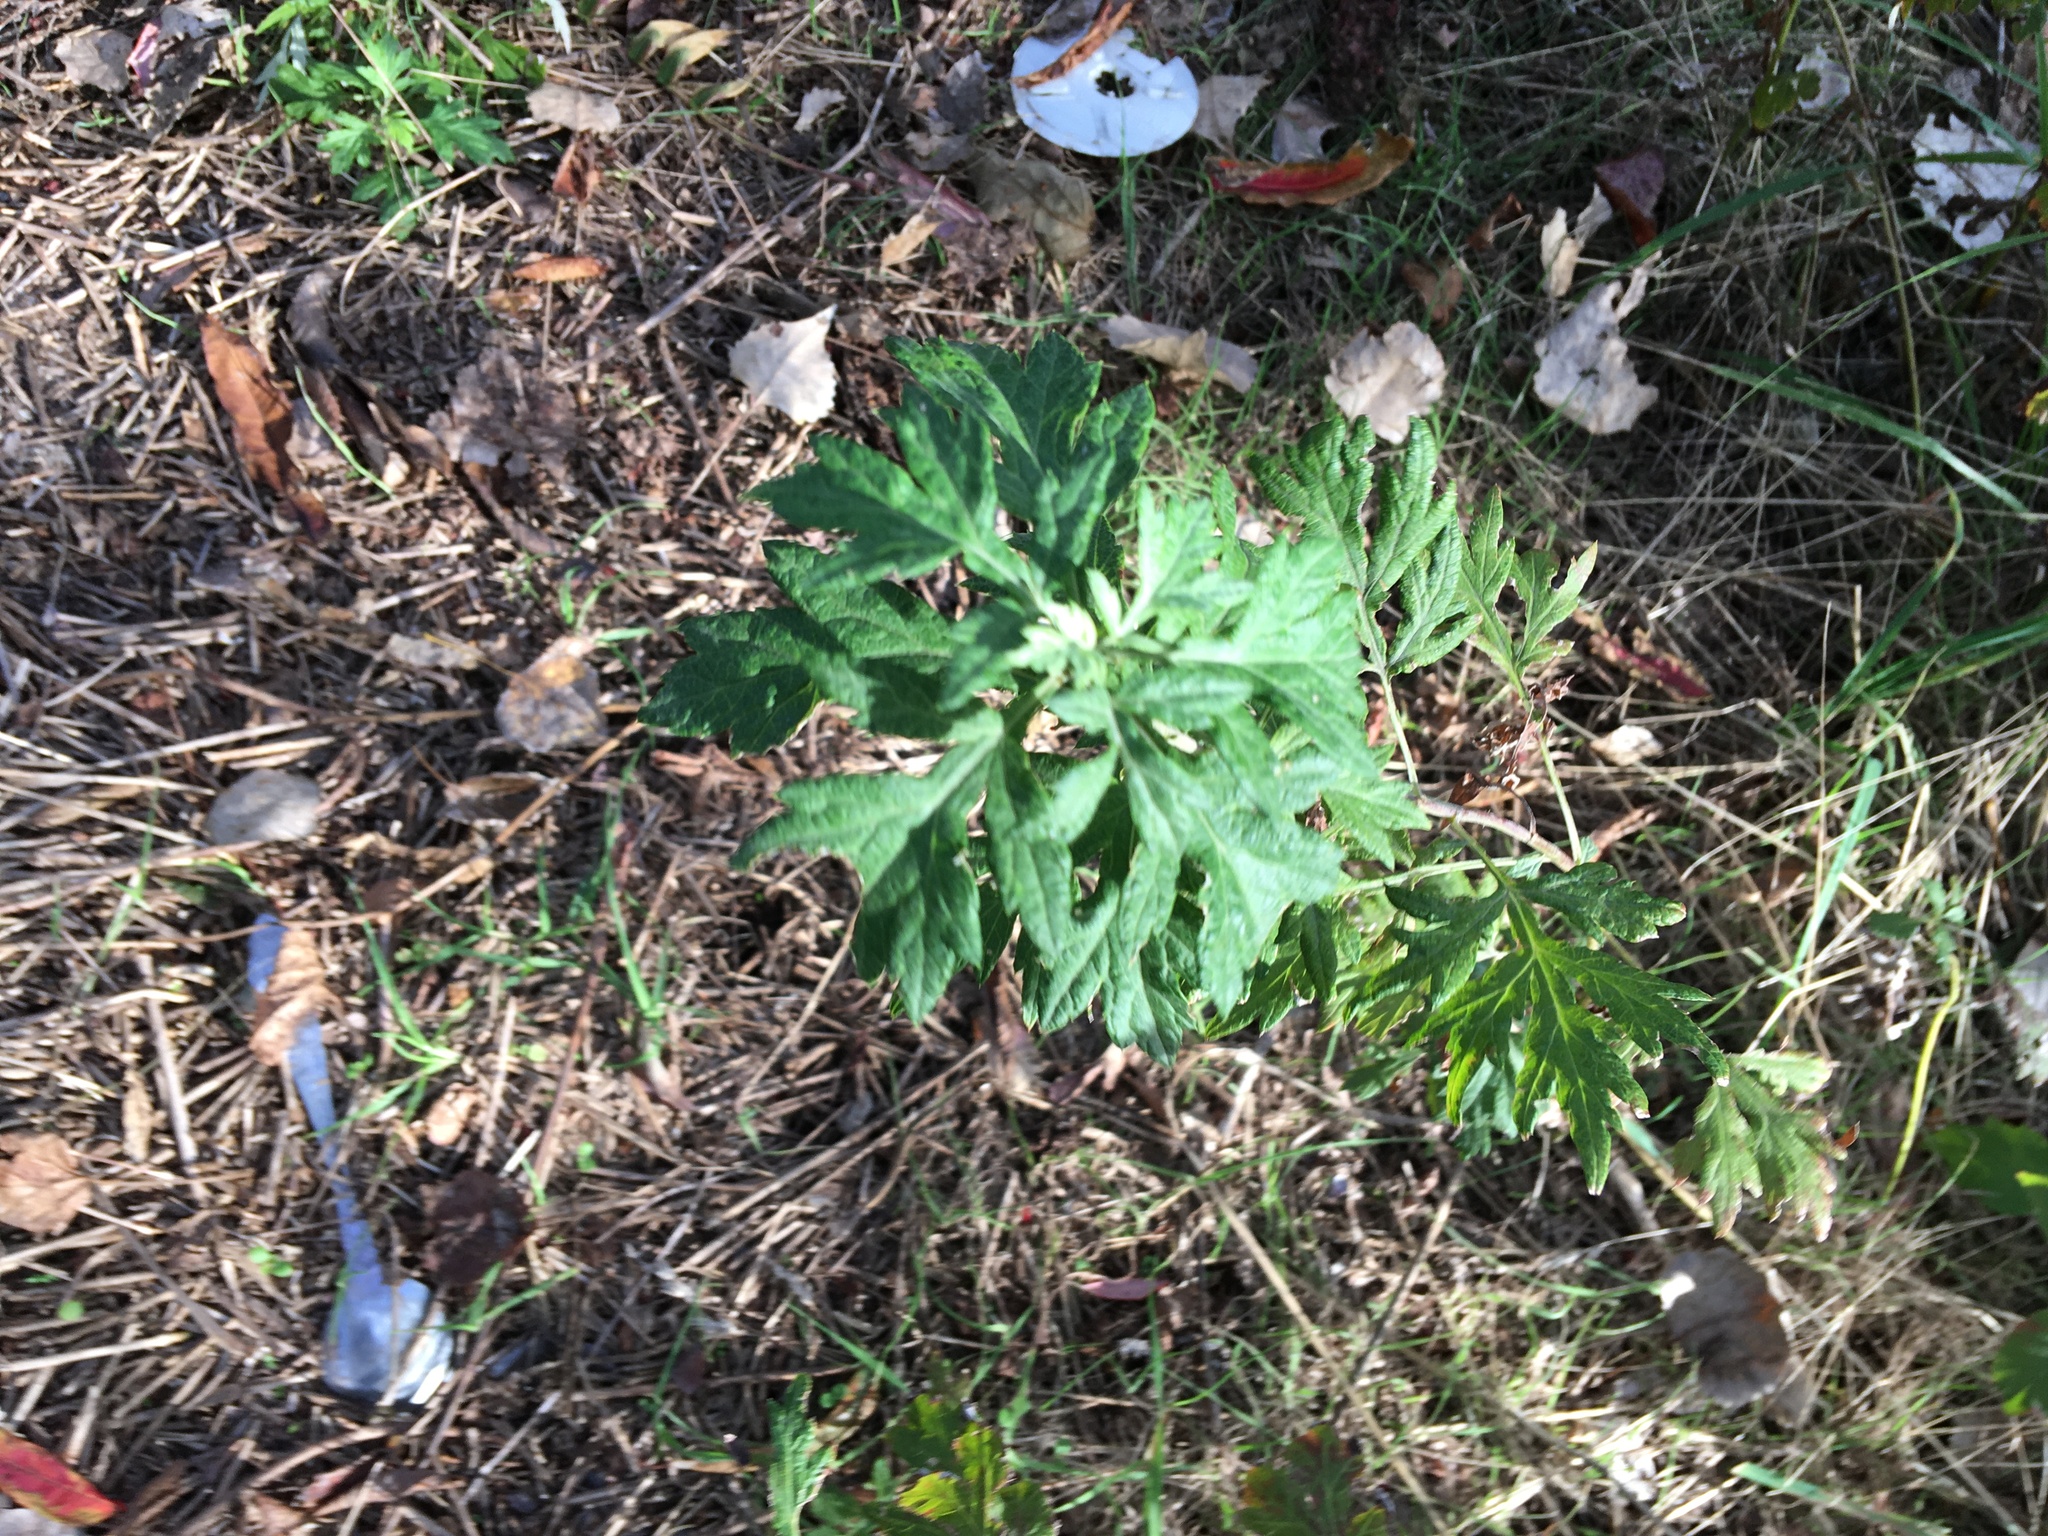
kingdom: Plantae
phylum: Tracheophyta
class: Magnoliopsida
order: Asterales
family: Asteraceae
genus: Artemisia
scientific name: Artemisia vulgaris
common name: Mugwort
